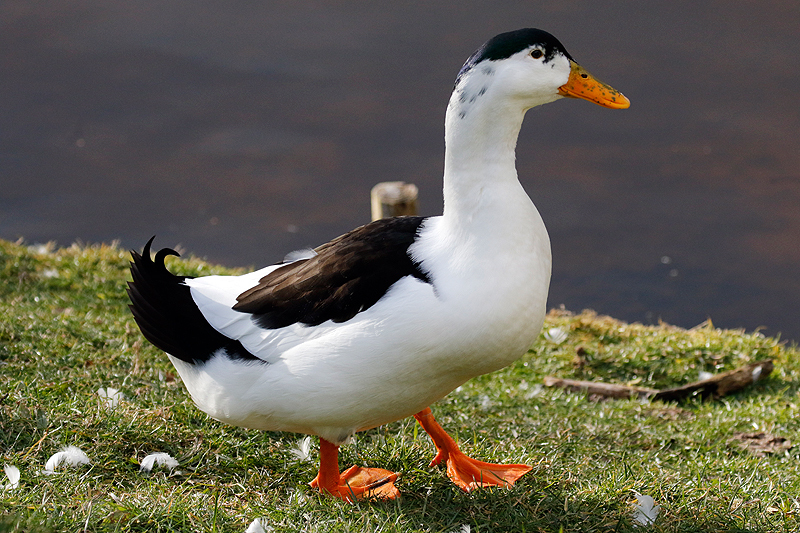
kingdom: Animalia
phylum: Chordata
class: Aves
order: Anseriformes
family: Anatidae
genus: Anas
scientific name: Anas platyrhynchos
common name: Mallard
